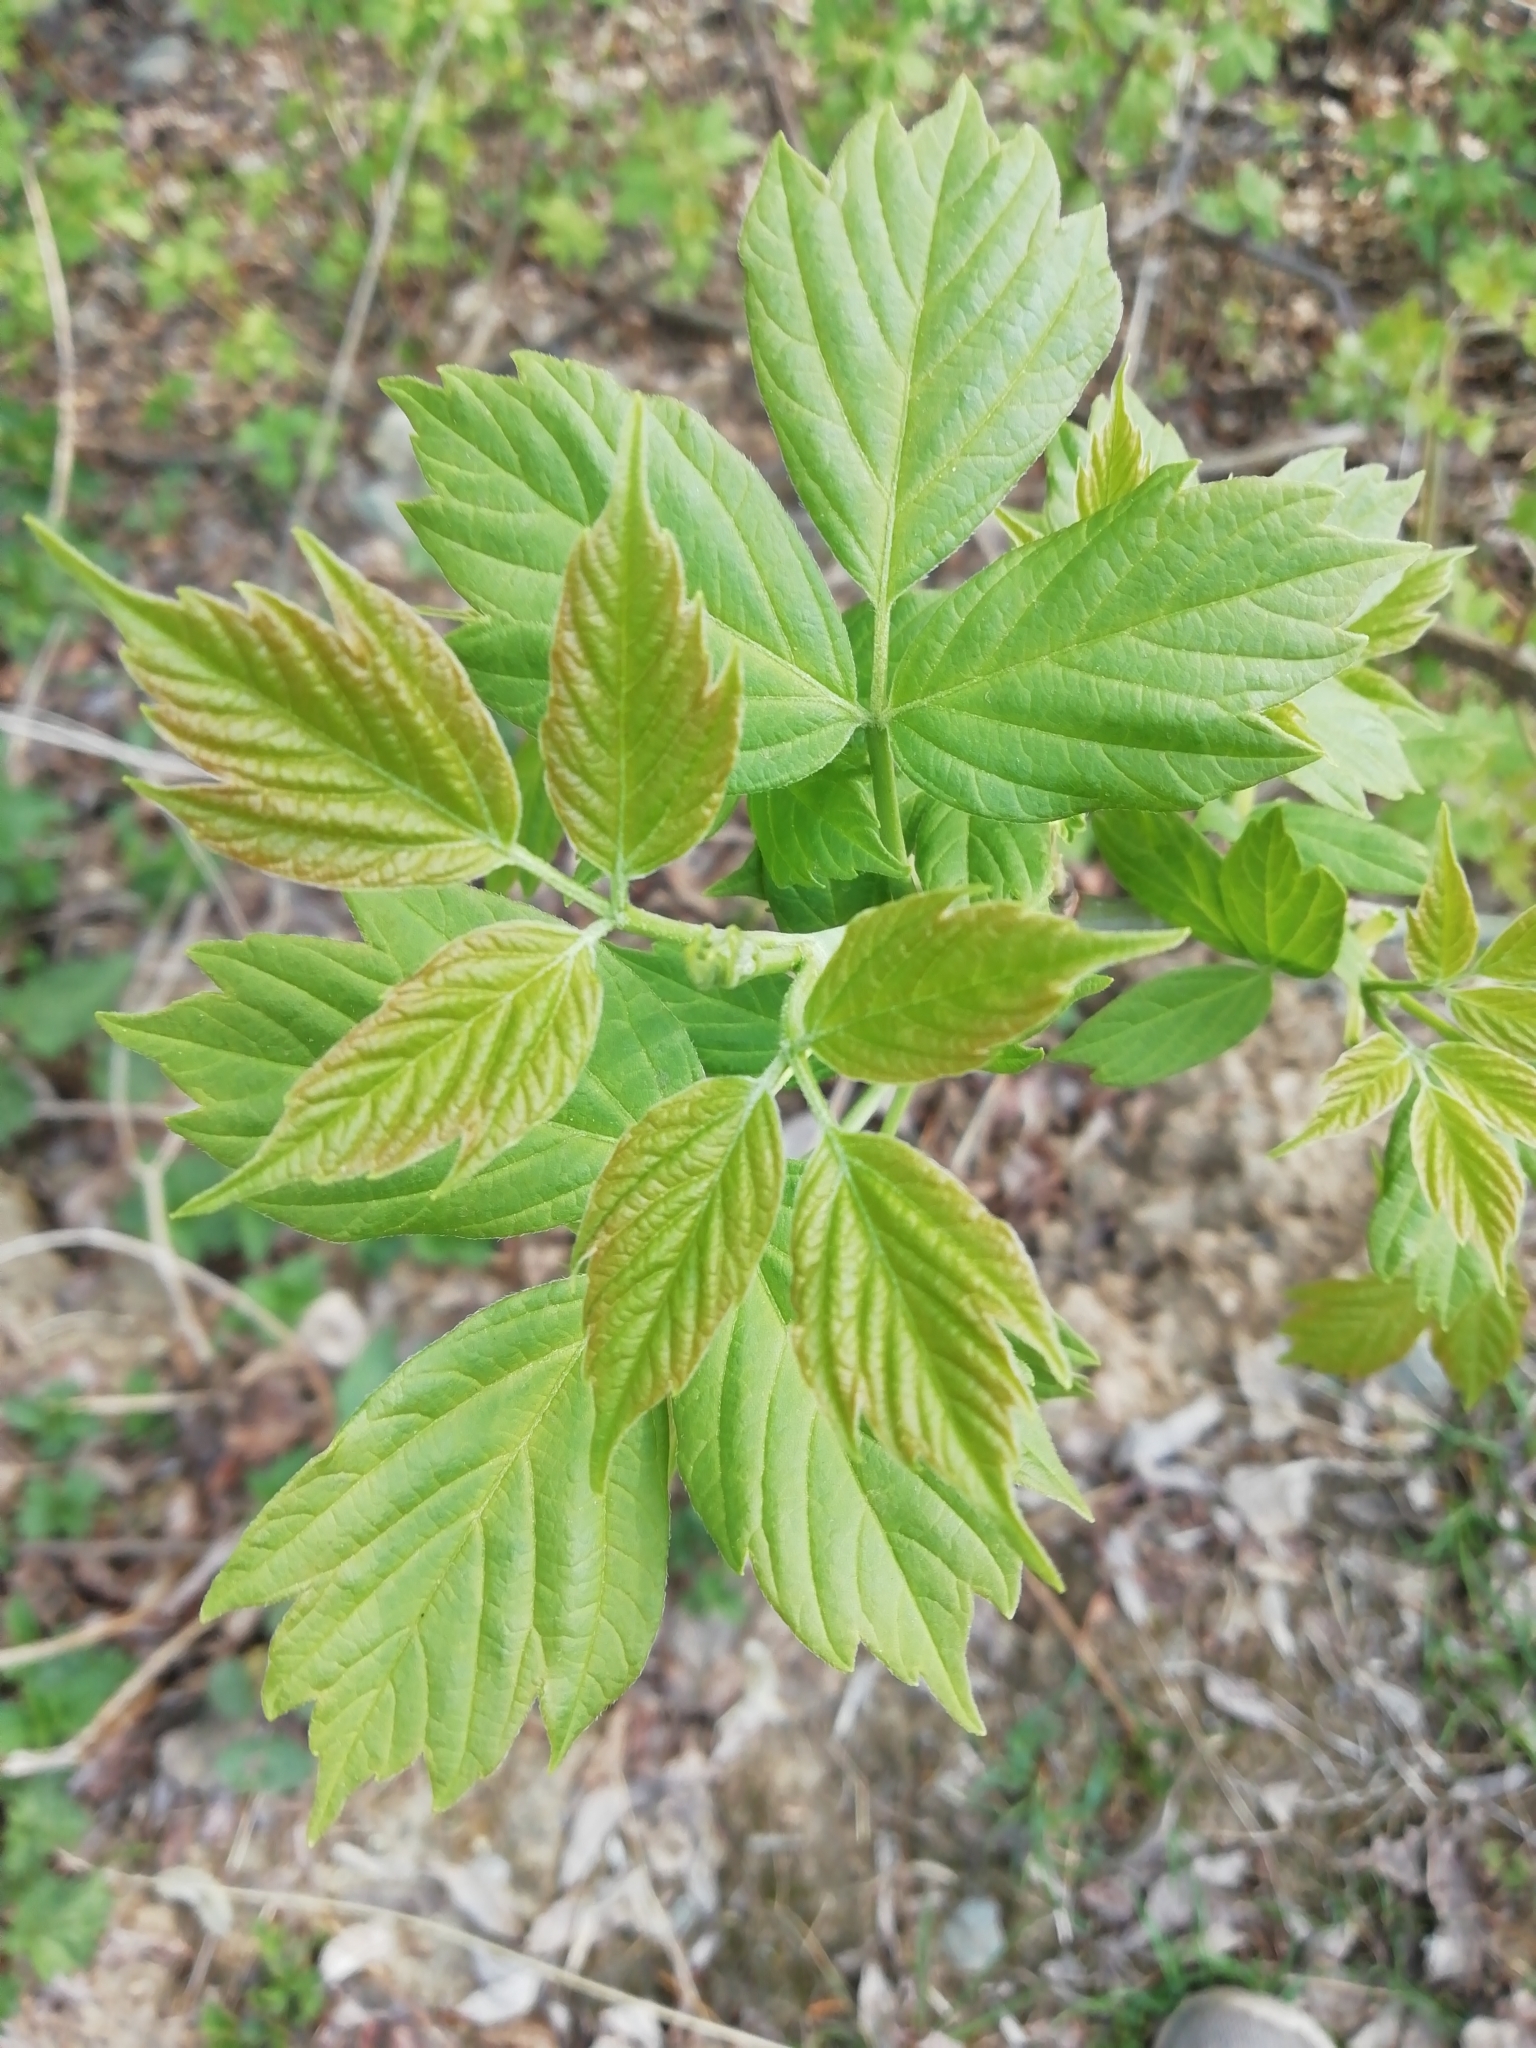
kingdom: Plantae
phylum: Tracheophyta
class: Magnoliopsida
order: Sapindales
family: Sapindaceae
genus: Acer
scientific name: Acer negundo
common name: Ashleaf maple
